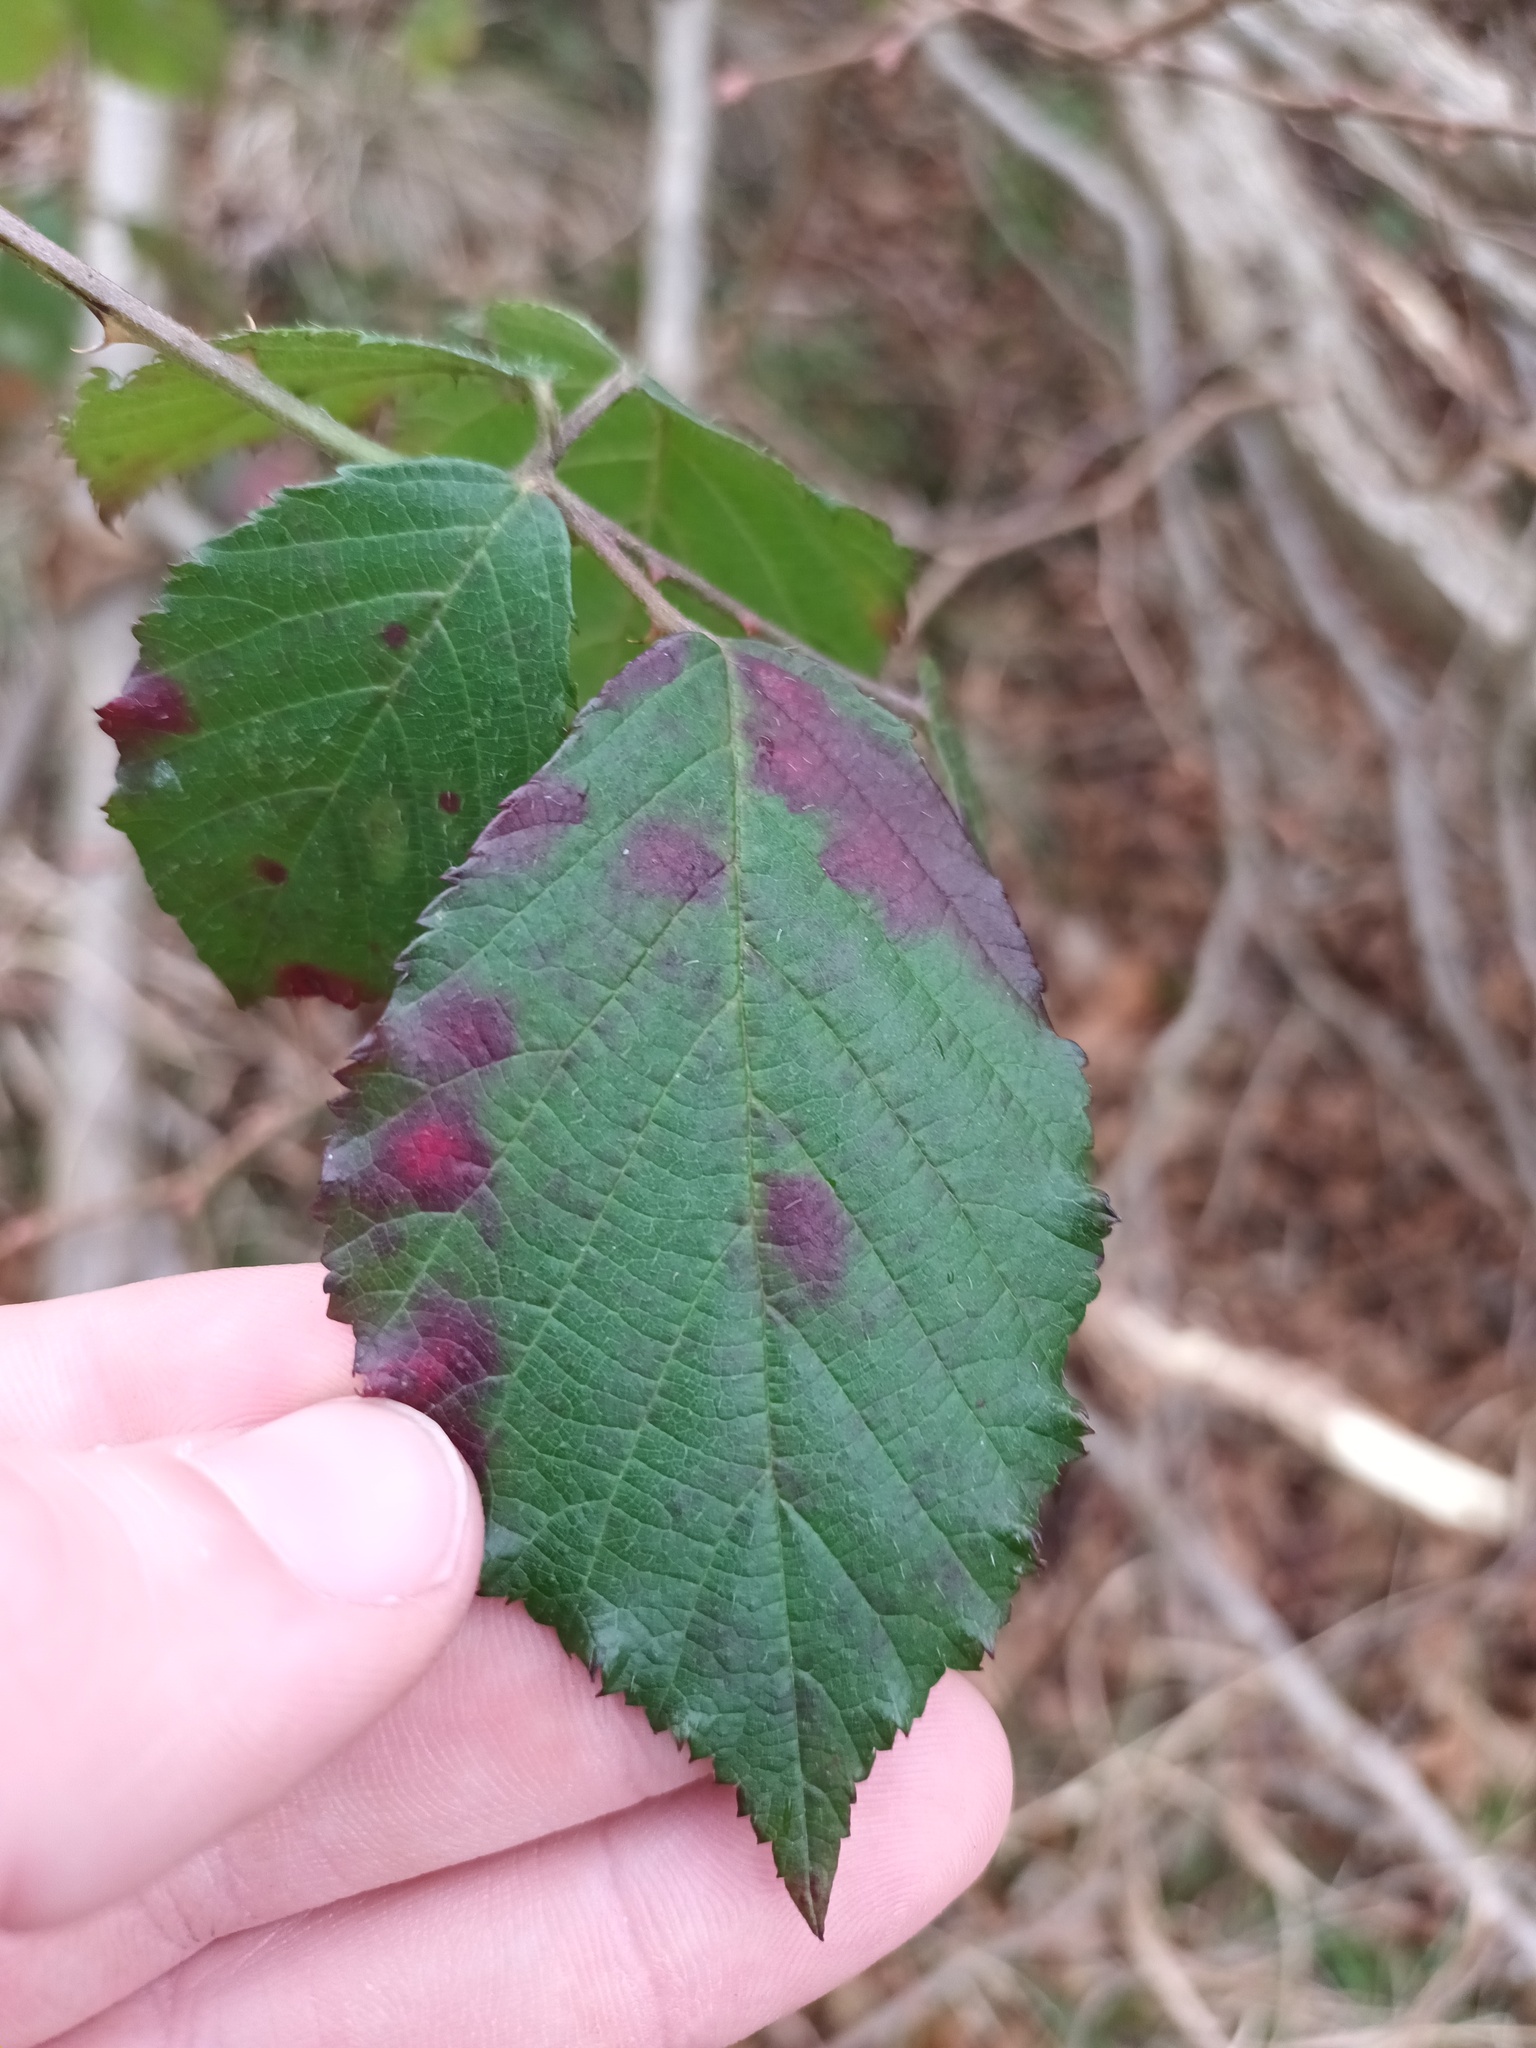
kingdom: Fungi
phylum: Basidiomycota
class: Pucciniomycetes
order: Pucciniales
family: Phragmidiaceae
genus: Phragmidium
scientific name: Phragmidium violaceum
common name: Violet bramble rust
